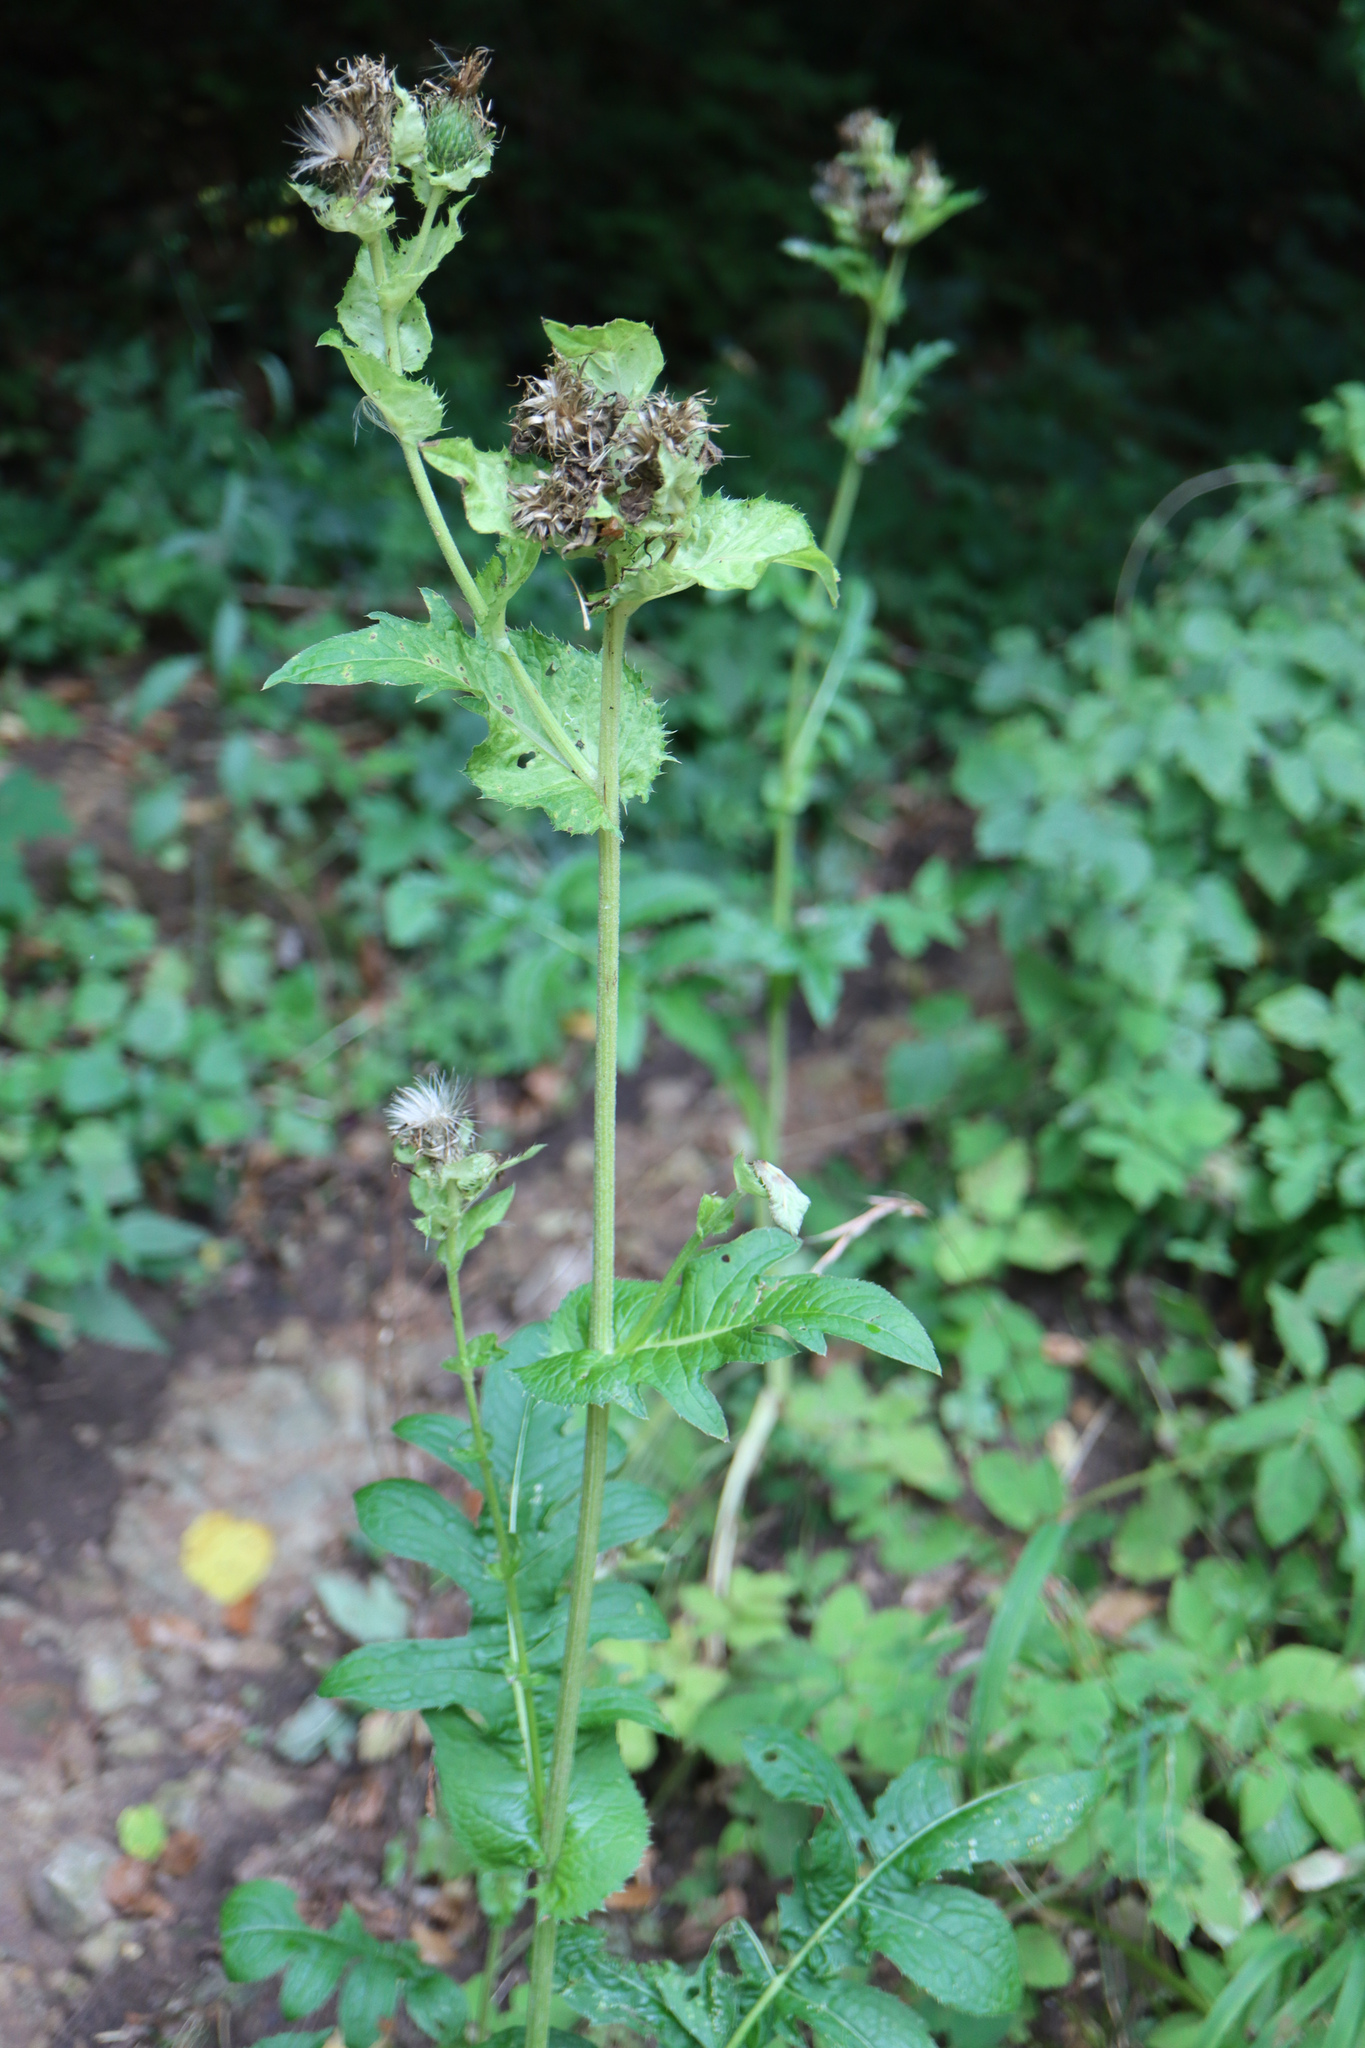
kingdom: Plantae
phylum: Tracheophyta
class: Magnoliopsida
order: Asterales
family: Asteraceae
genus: Cirsium
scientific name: Cirsium oleraceum
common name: Cabbage thistle
